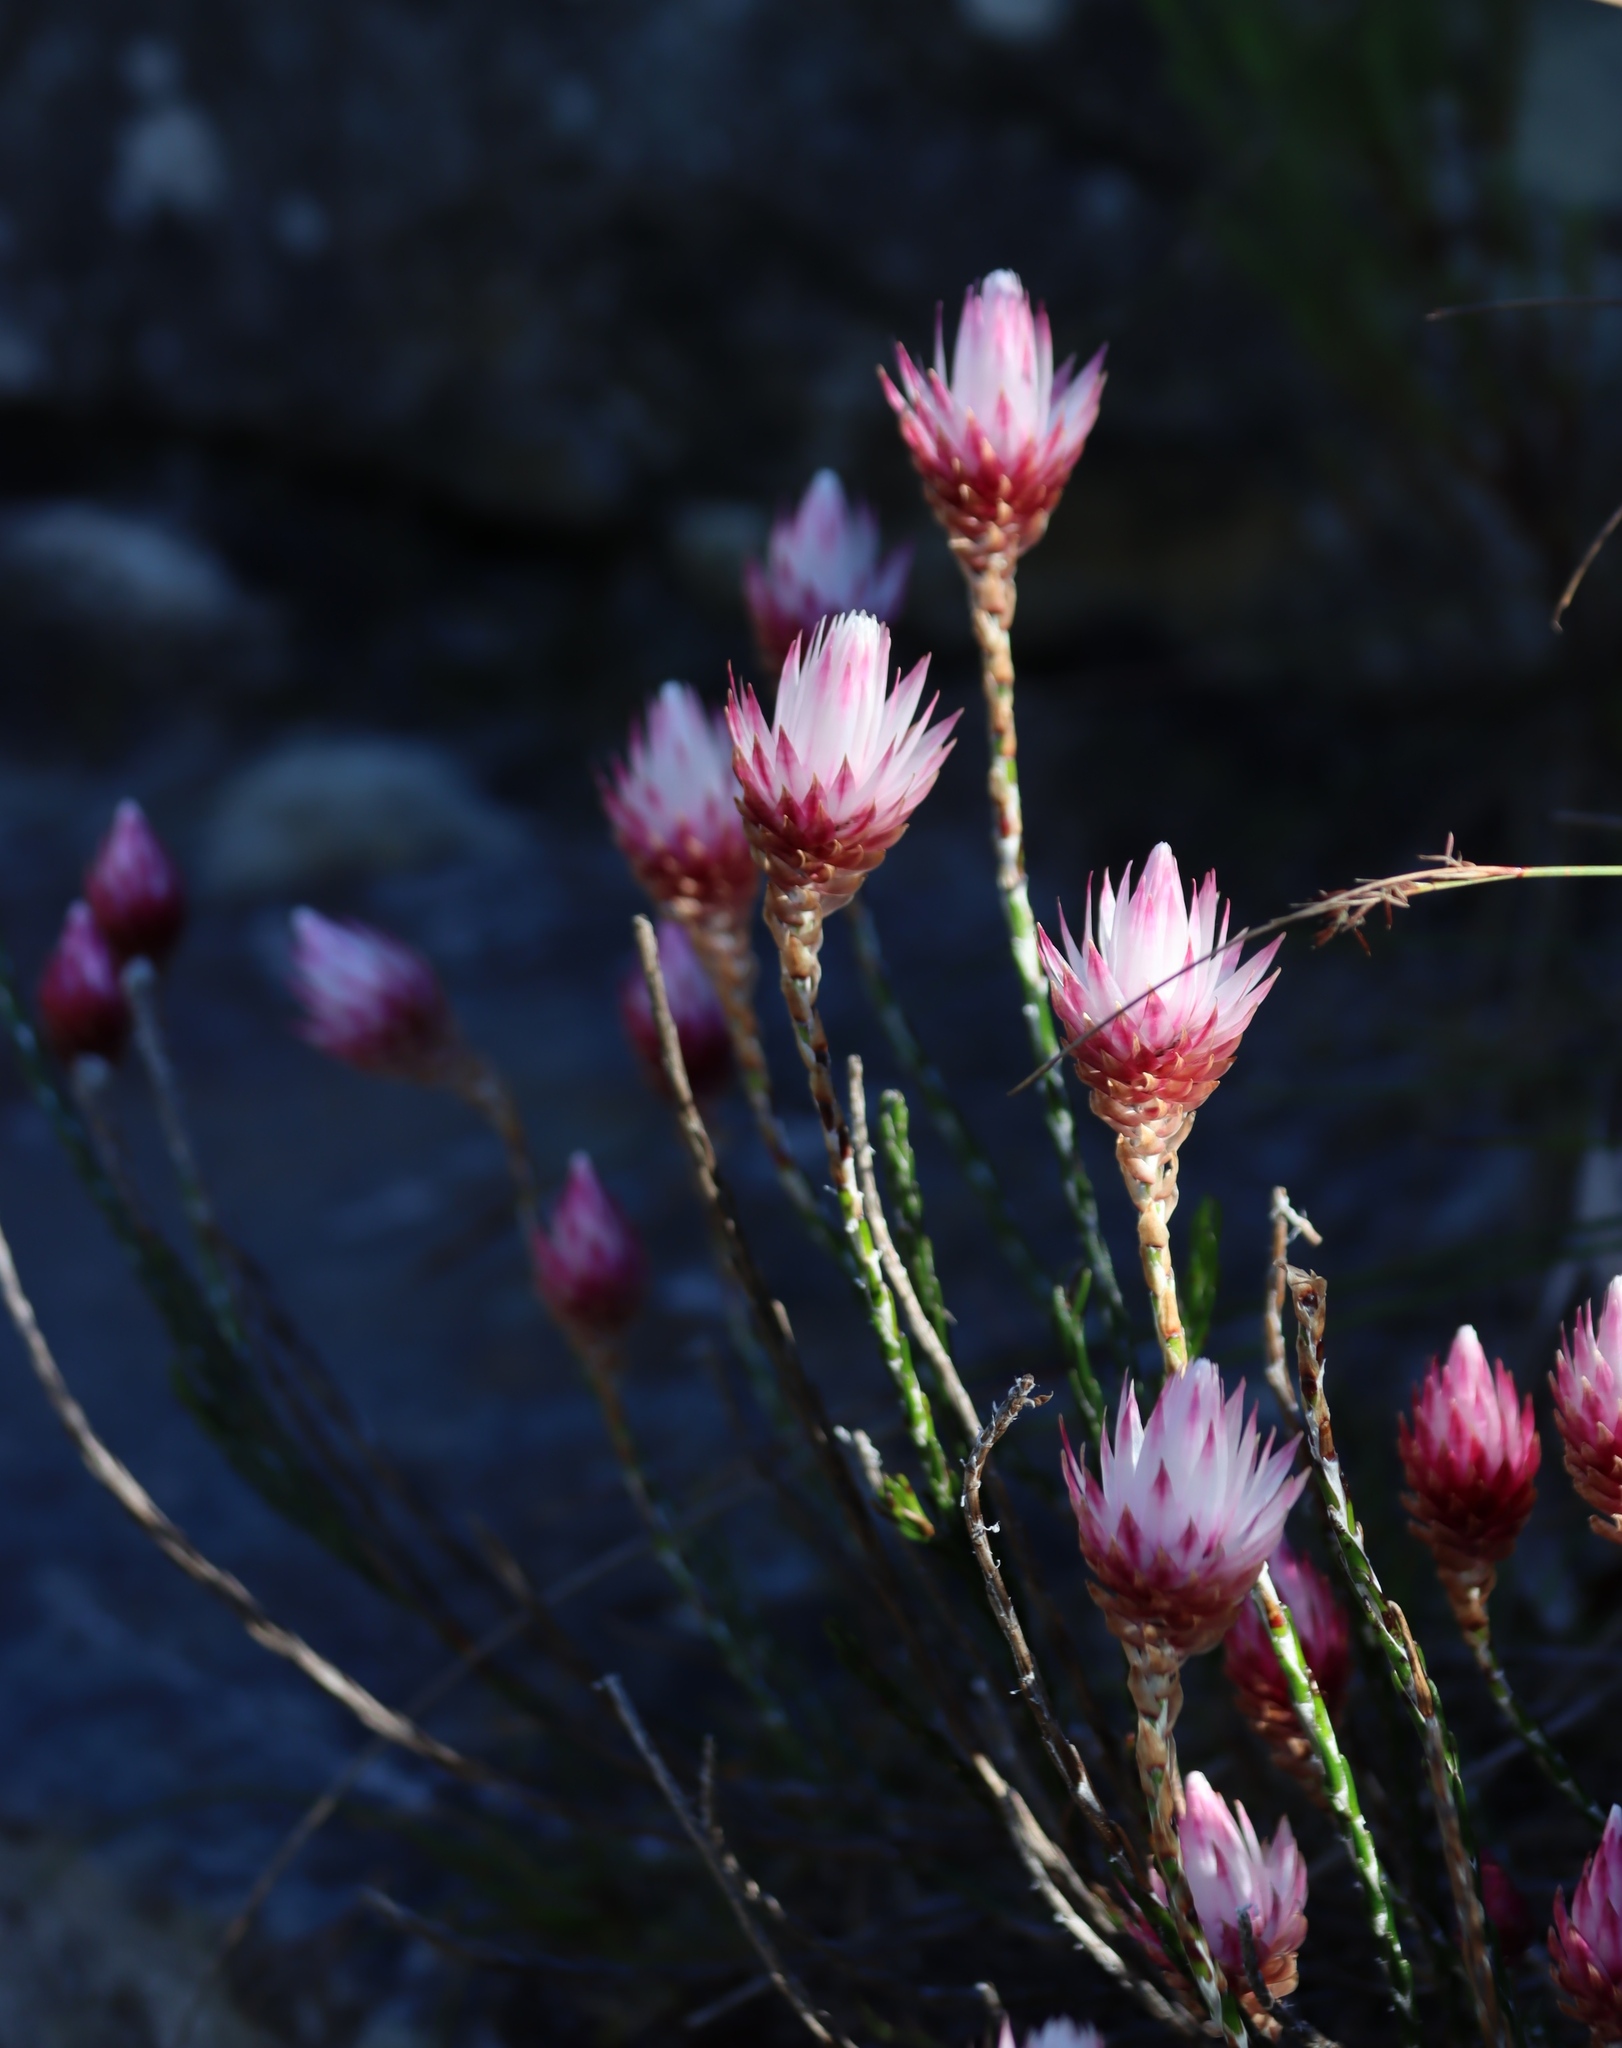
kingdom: Plantae
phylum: Tracheophyta
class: Magnoliopsida
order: Asterales
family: Asteraceae
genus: Edmondia
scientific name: Edmondia pinifolia
